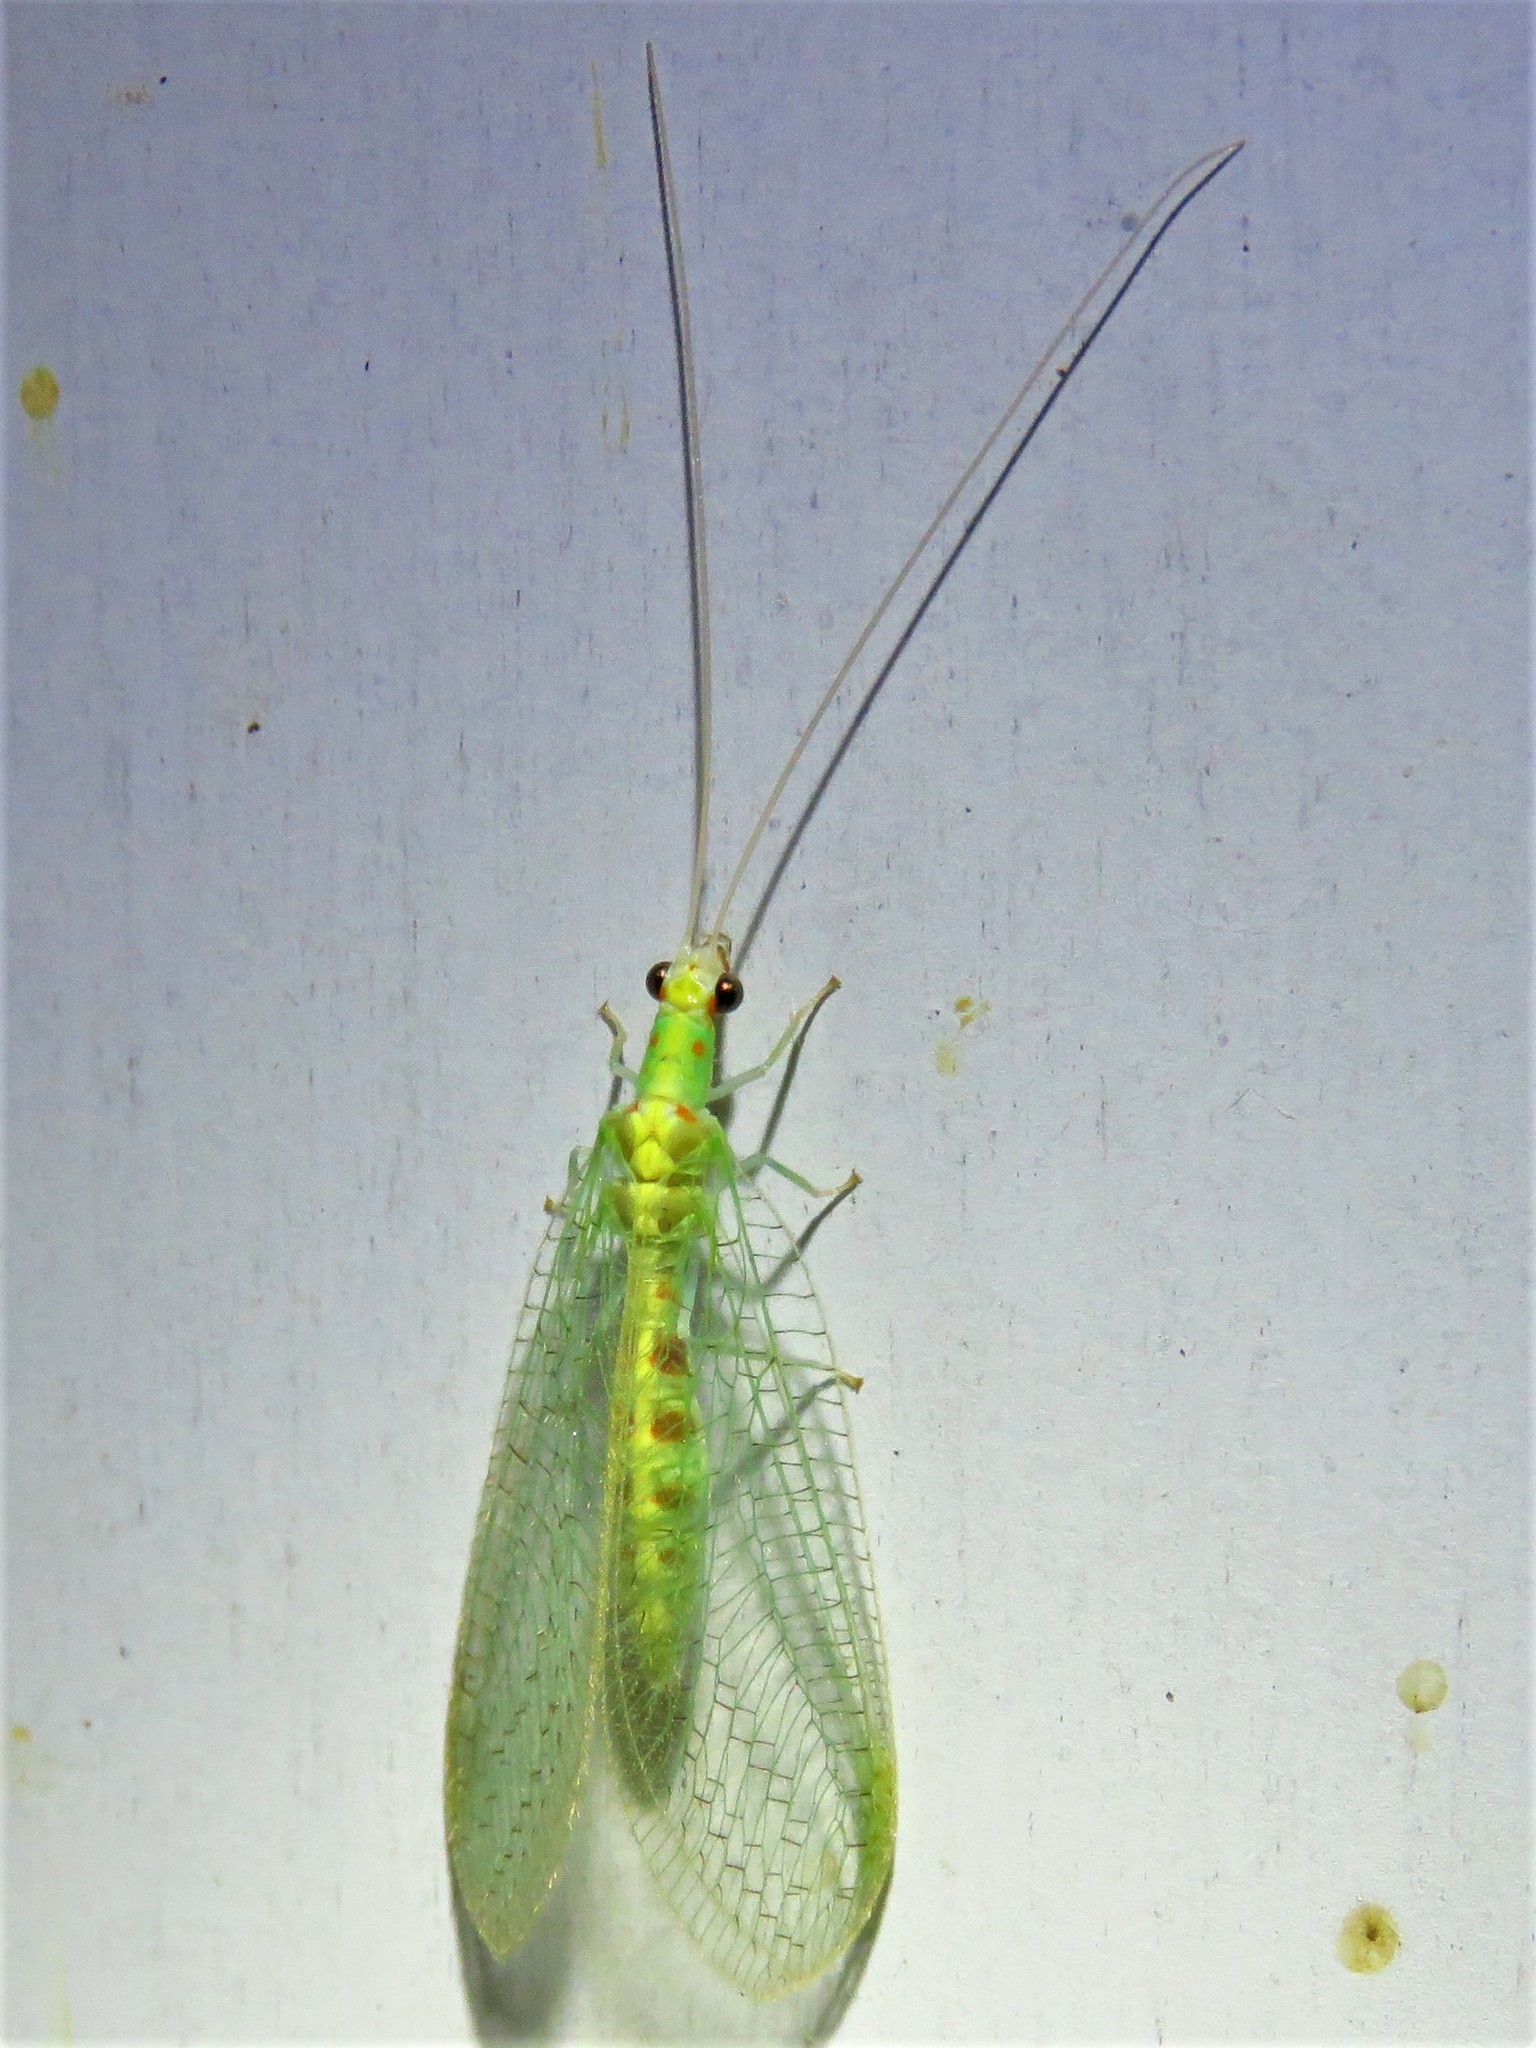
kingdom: Animalia
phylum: Arthropoda
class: Insecta
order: Neuroptera
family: Chrysopidae
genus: Chrysopa
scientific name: Chrysopa quadripunctata
